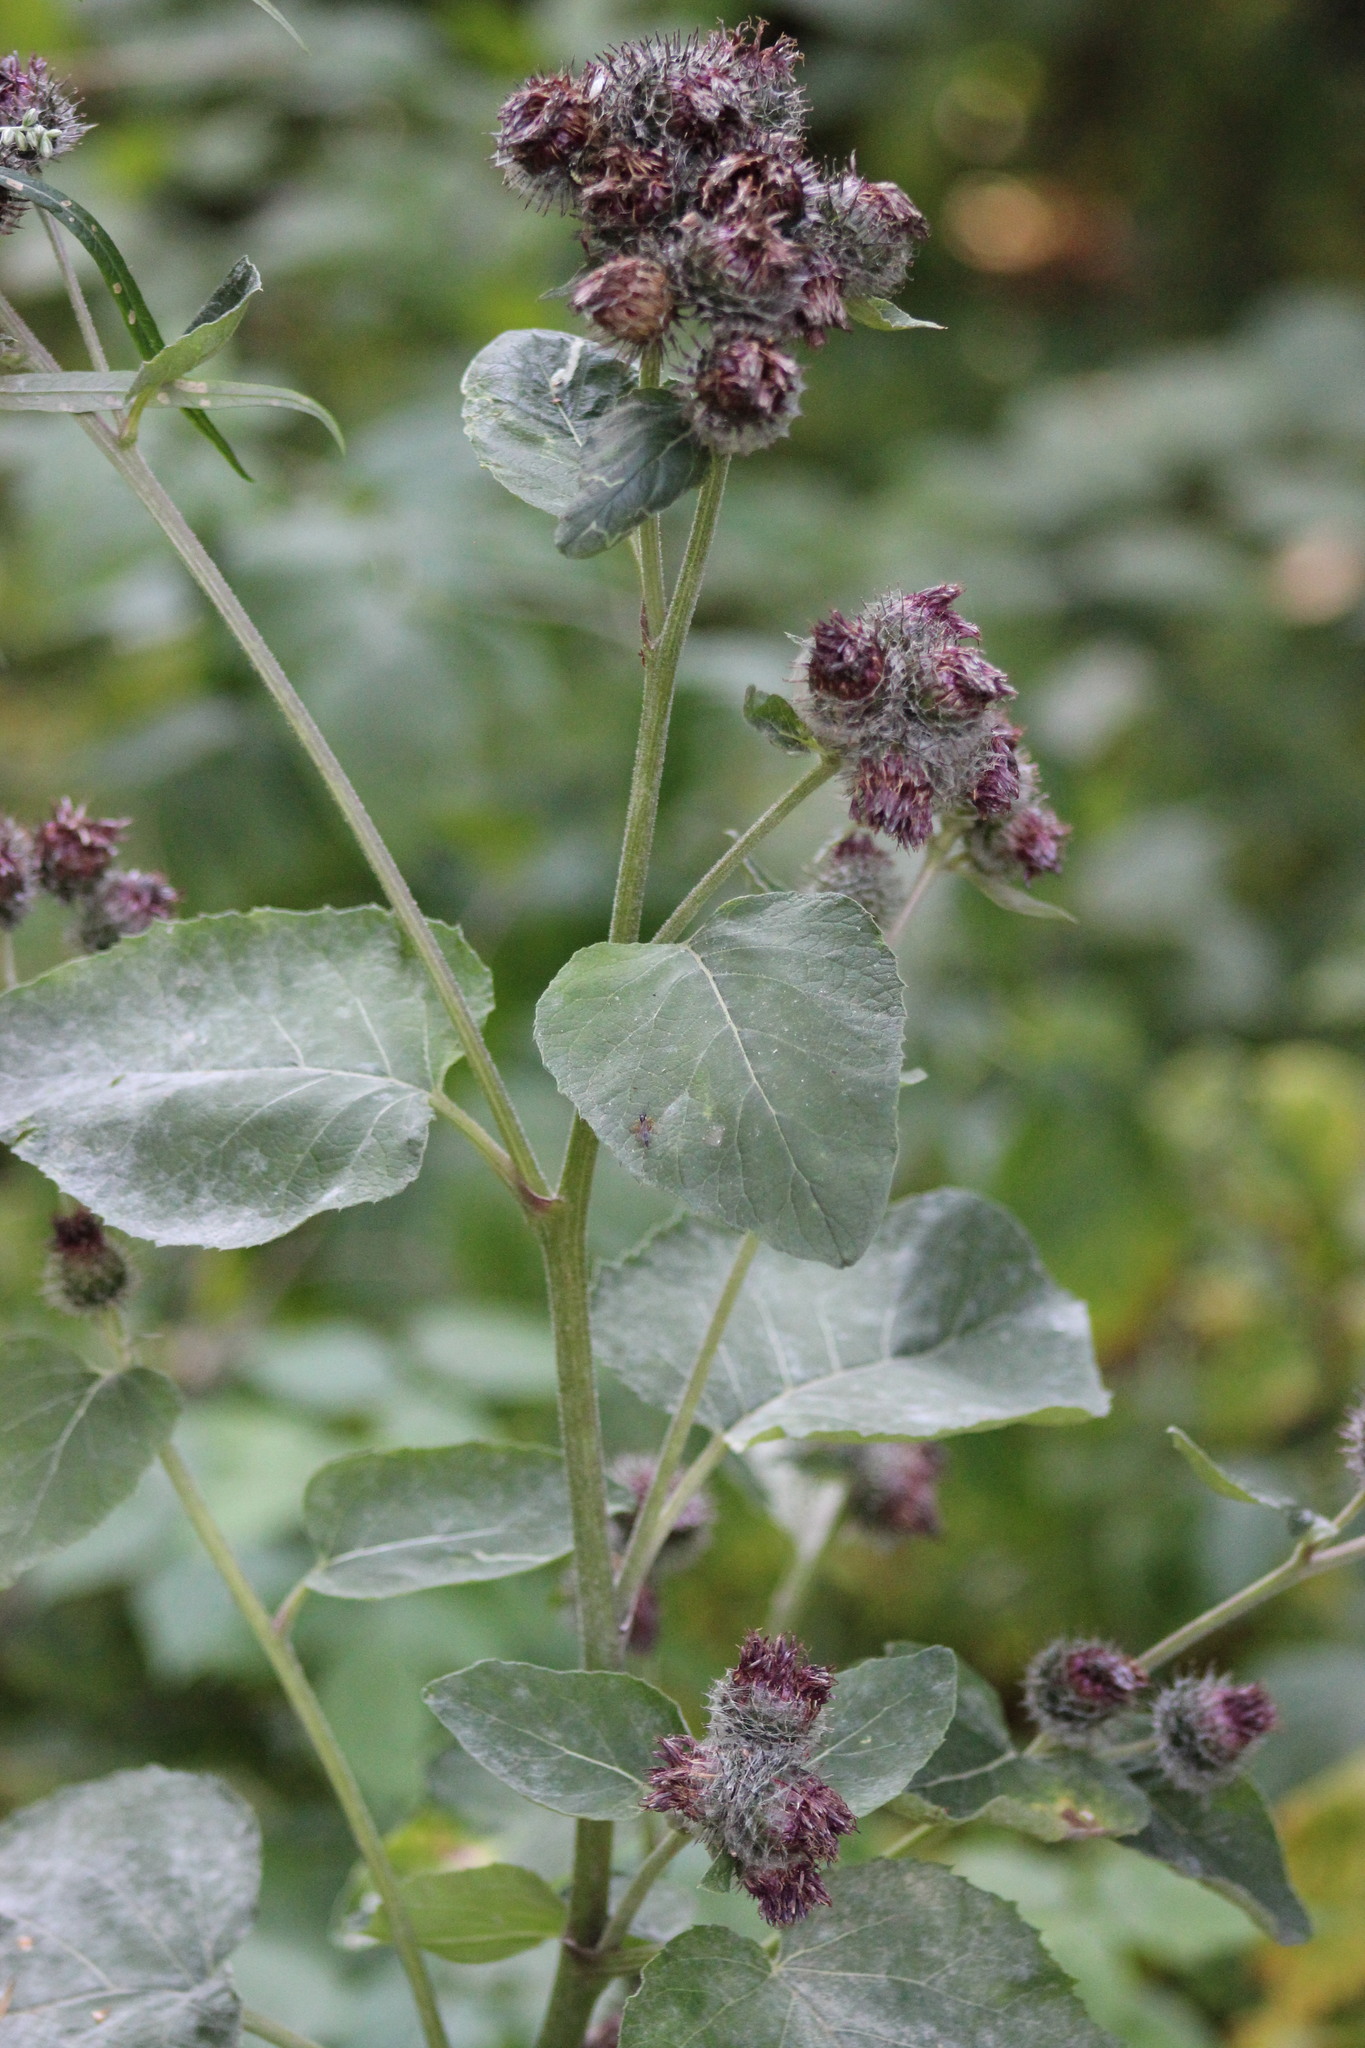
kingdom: Plantae
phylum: Tracheophyta
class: Magnoliopsida
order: Asterales
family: Asteraceae
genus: Arctium
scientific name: Arctium tomentosum
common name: Woolly burdock
